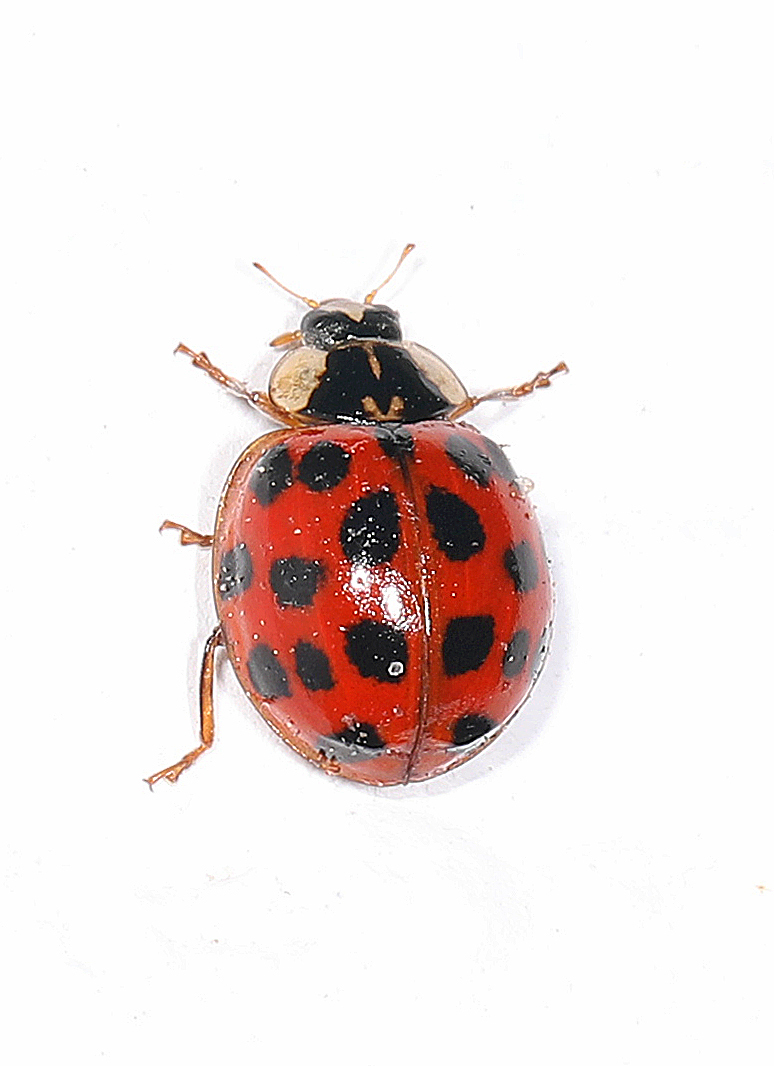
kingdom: Animalia
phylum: Arthropoda
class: Insecta
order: Coleoptera
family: Coccinellidae
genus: Harmonia
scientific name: Harmonia axyridis
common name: Harlequin ladybird
